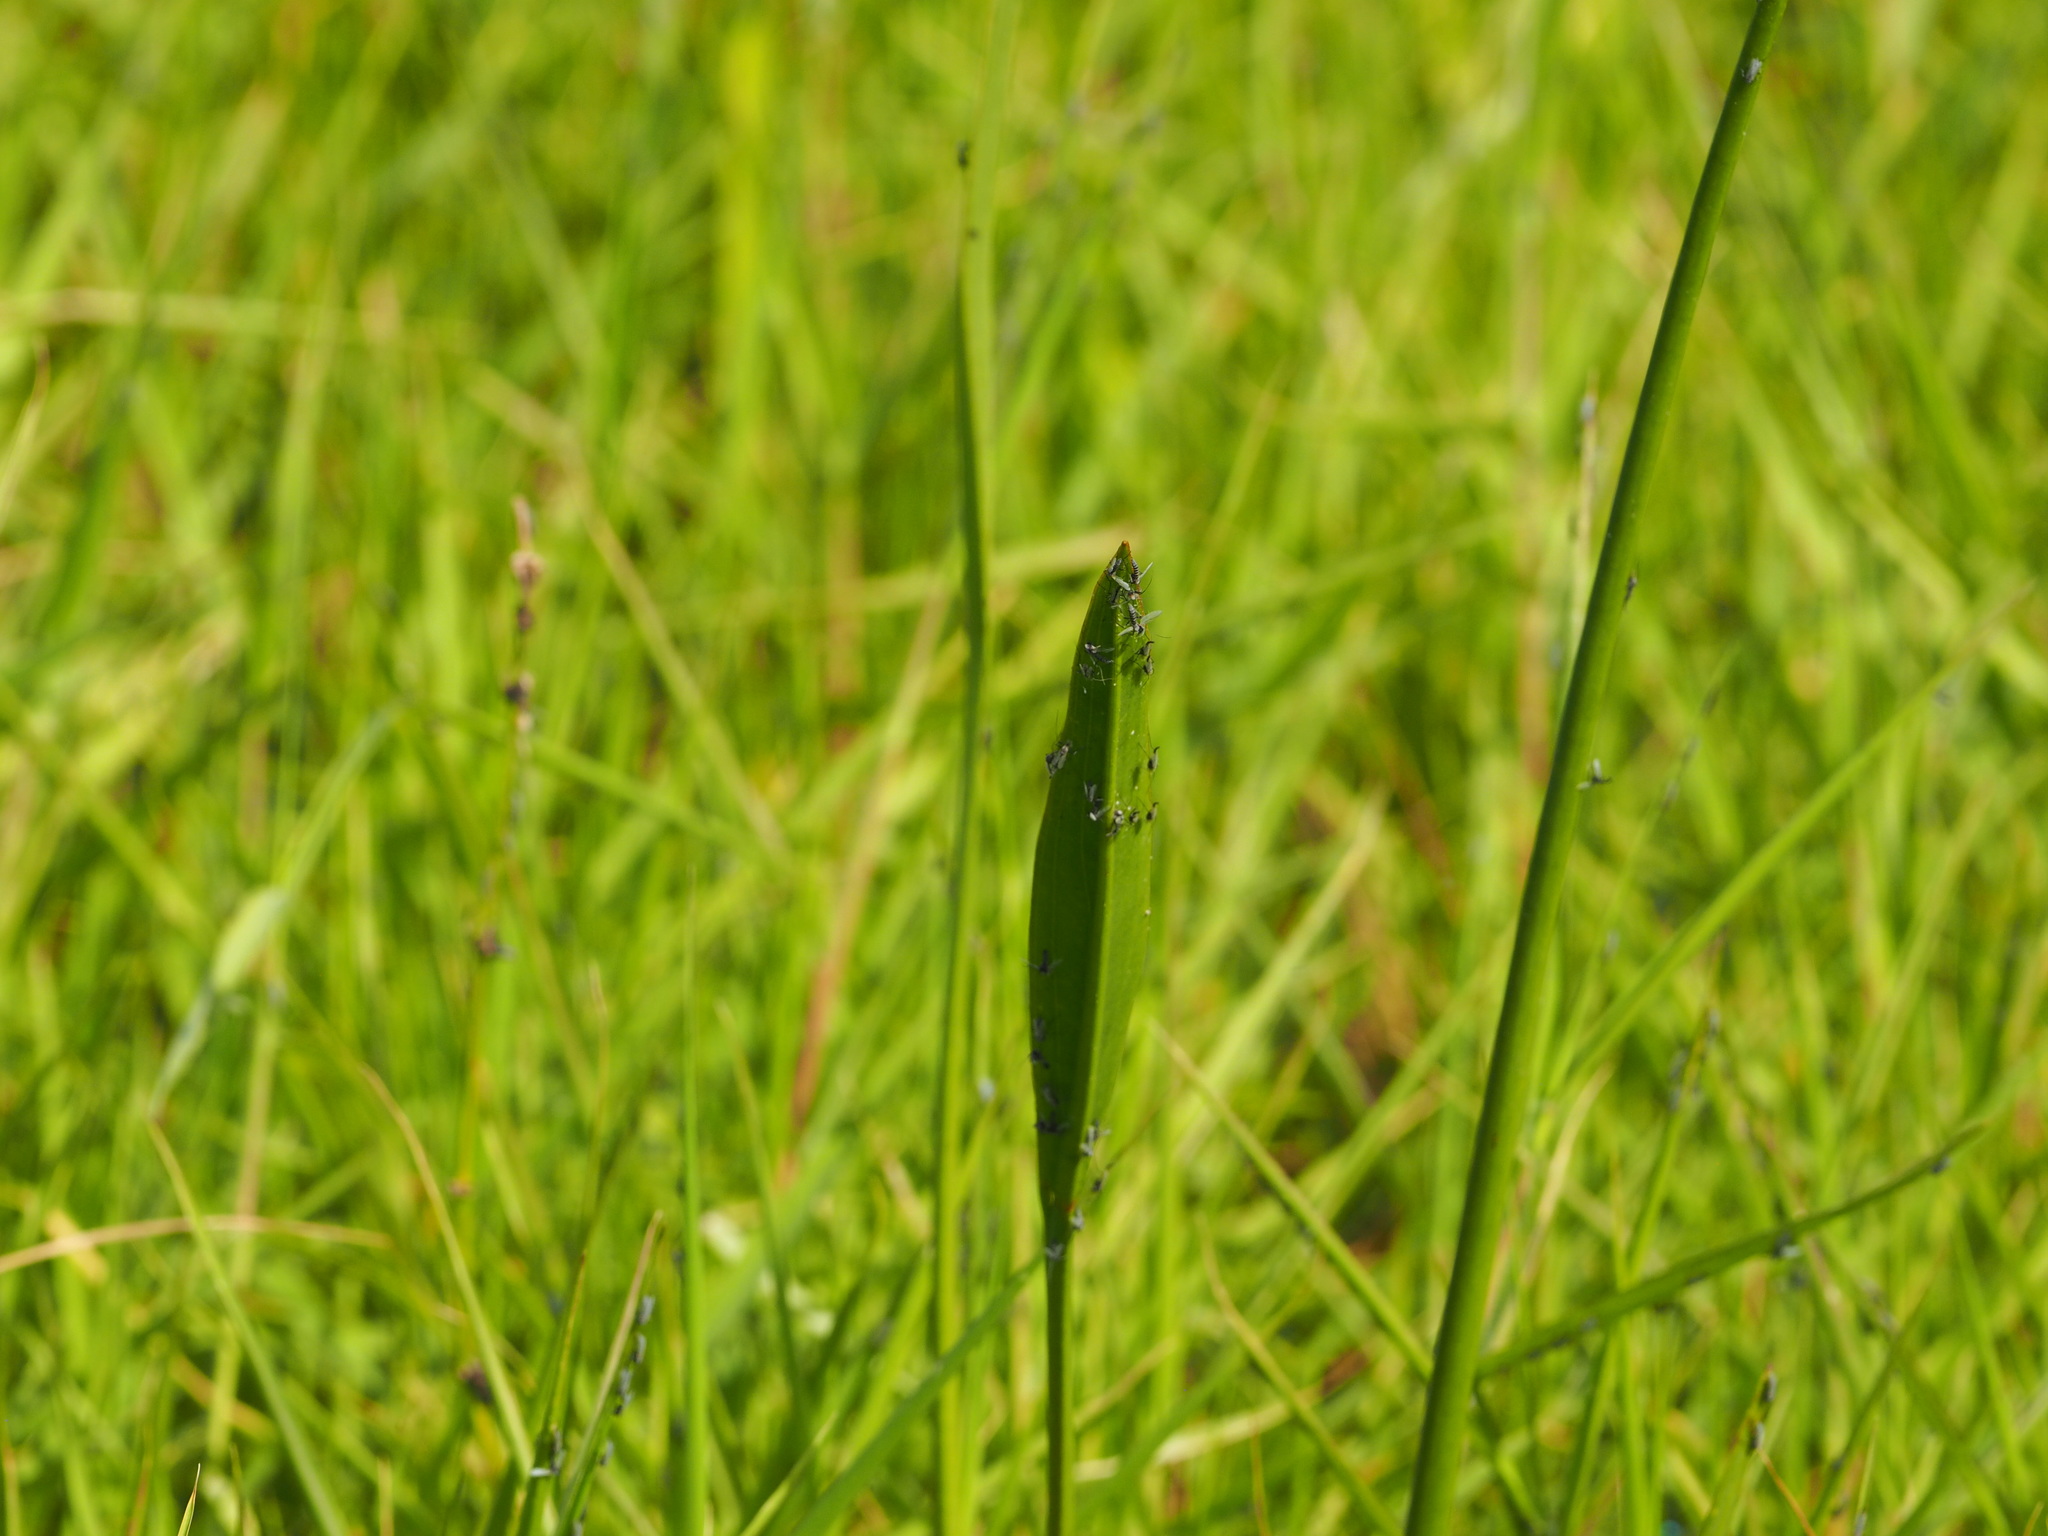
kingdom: Plantae
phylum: Tracheophyta
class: Liliopsida
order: Alismatales
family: Alismataceae
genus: Sagittaria
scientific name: Sagittaria lancifolia
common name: Lance-leaf arrowhead
